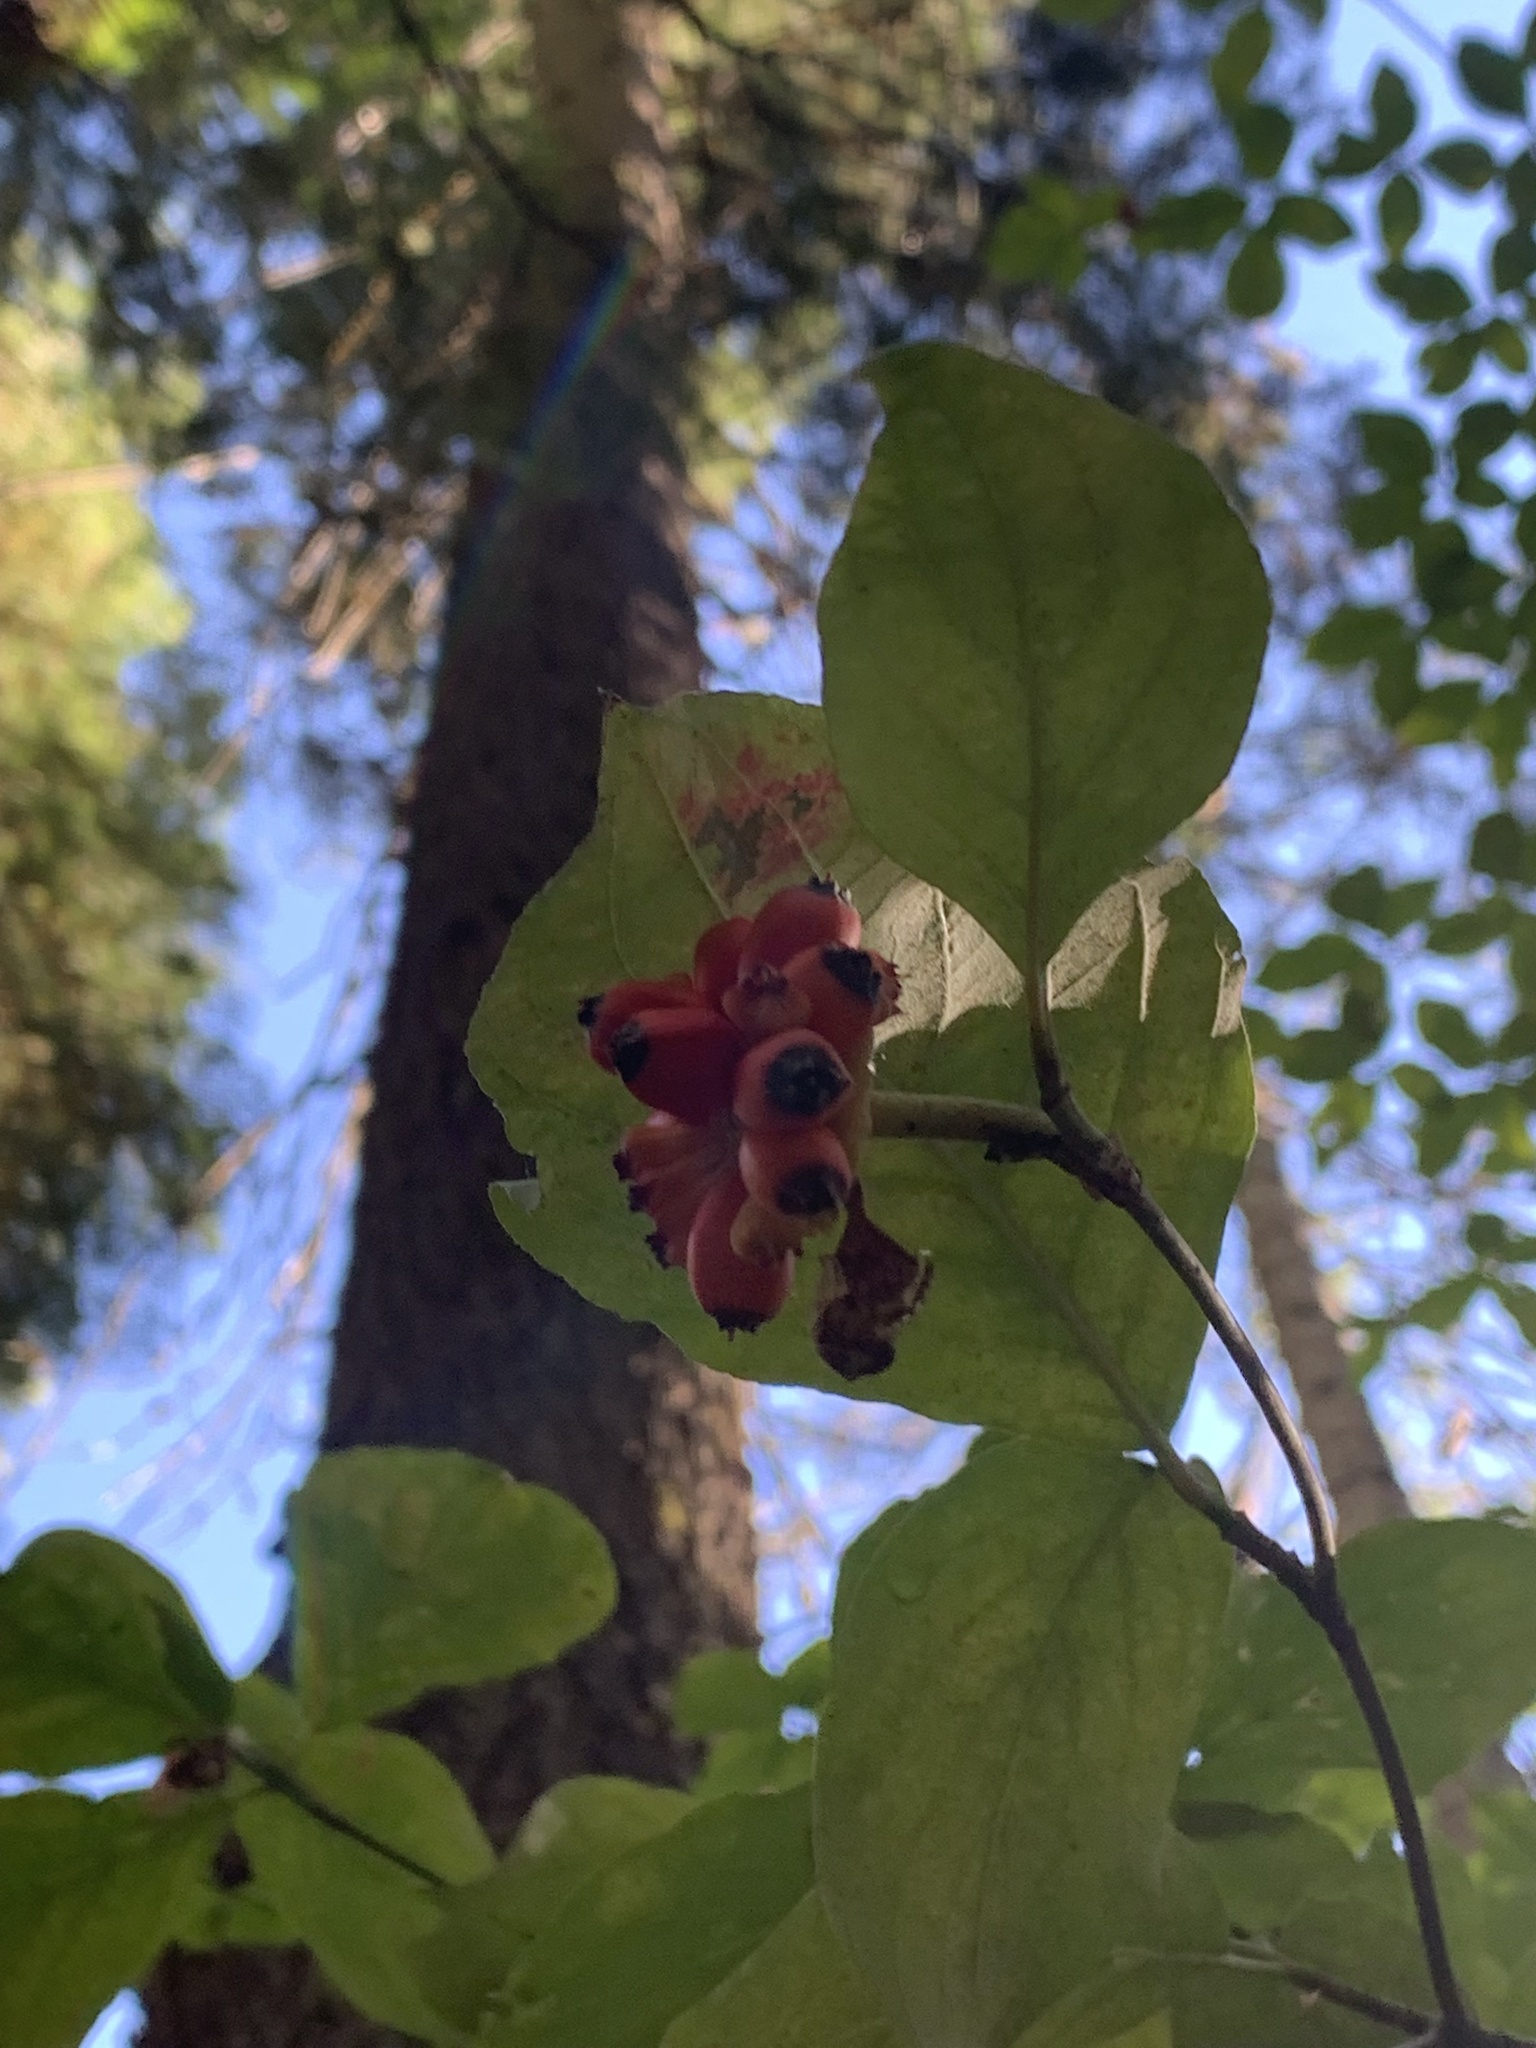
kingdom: Plantae
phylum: Tracheophyta
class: Magnoliopsida
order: Cornales
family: Cornaceae
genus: Cornus
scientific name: Cornus nuttallii
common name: Pacific dogwood
